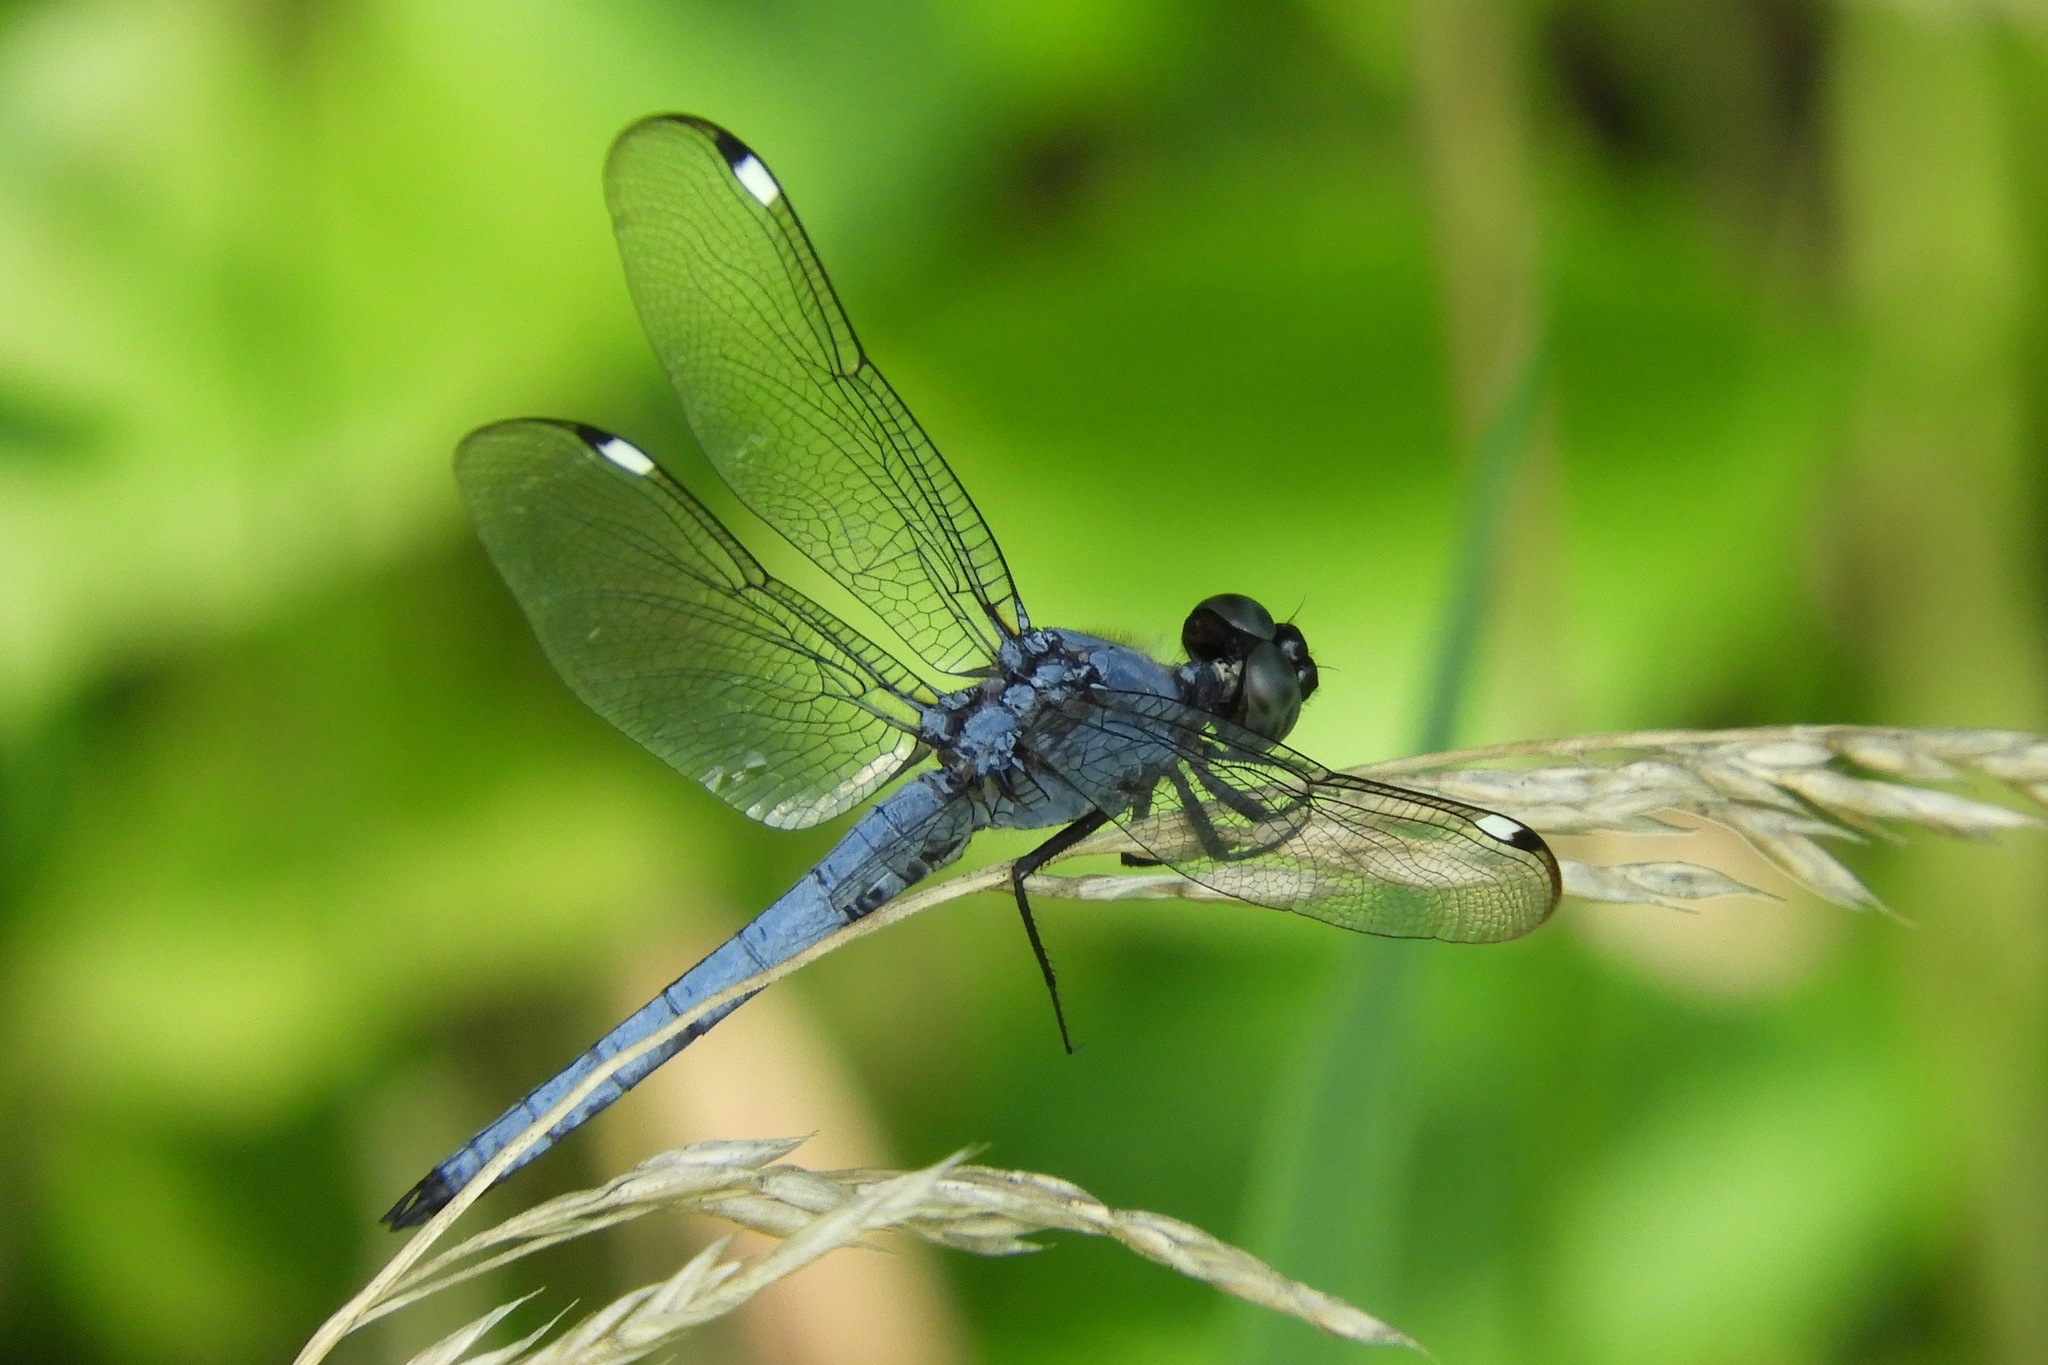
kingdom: Animalia
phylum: Arthropoda
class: Insecta
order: Odonata
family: Libellulidae
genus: Libellula
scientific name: Libellula cyanea
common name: Spangled skimmer
